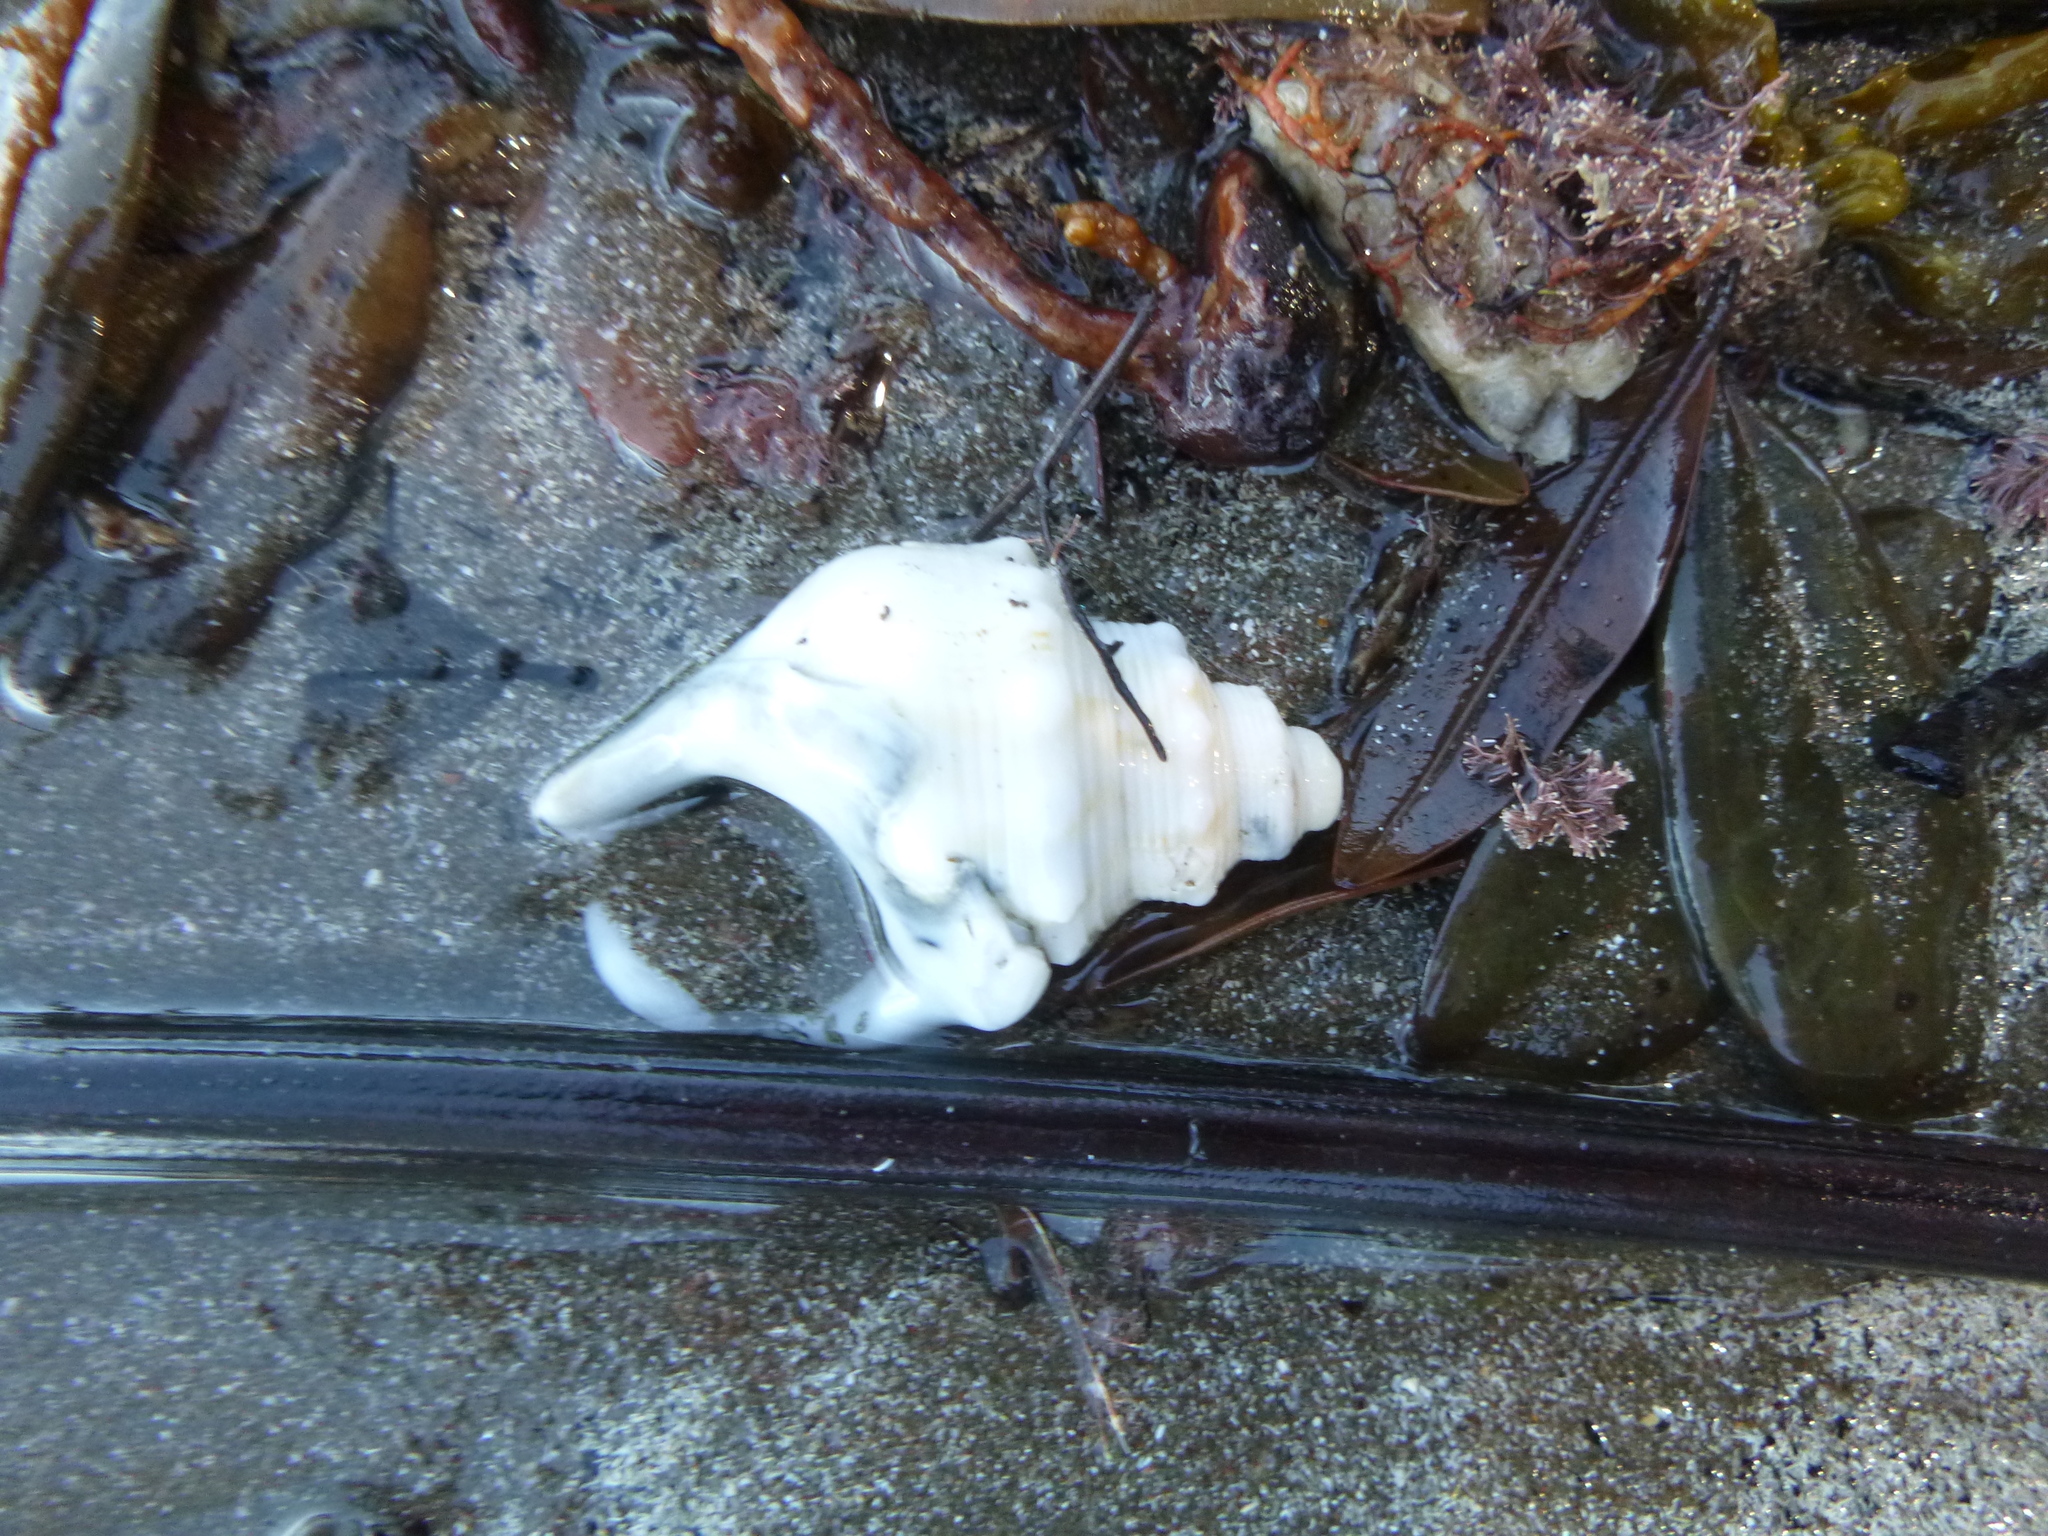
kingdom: Animalia
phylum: Mollusca
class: Gastropoda
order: Littorinimorpha
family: Struthiolariidae
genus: Struthiolaria
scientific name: Struthiolaria papulosa
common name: Large ostrich foot
